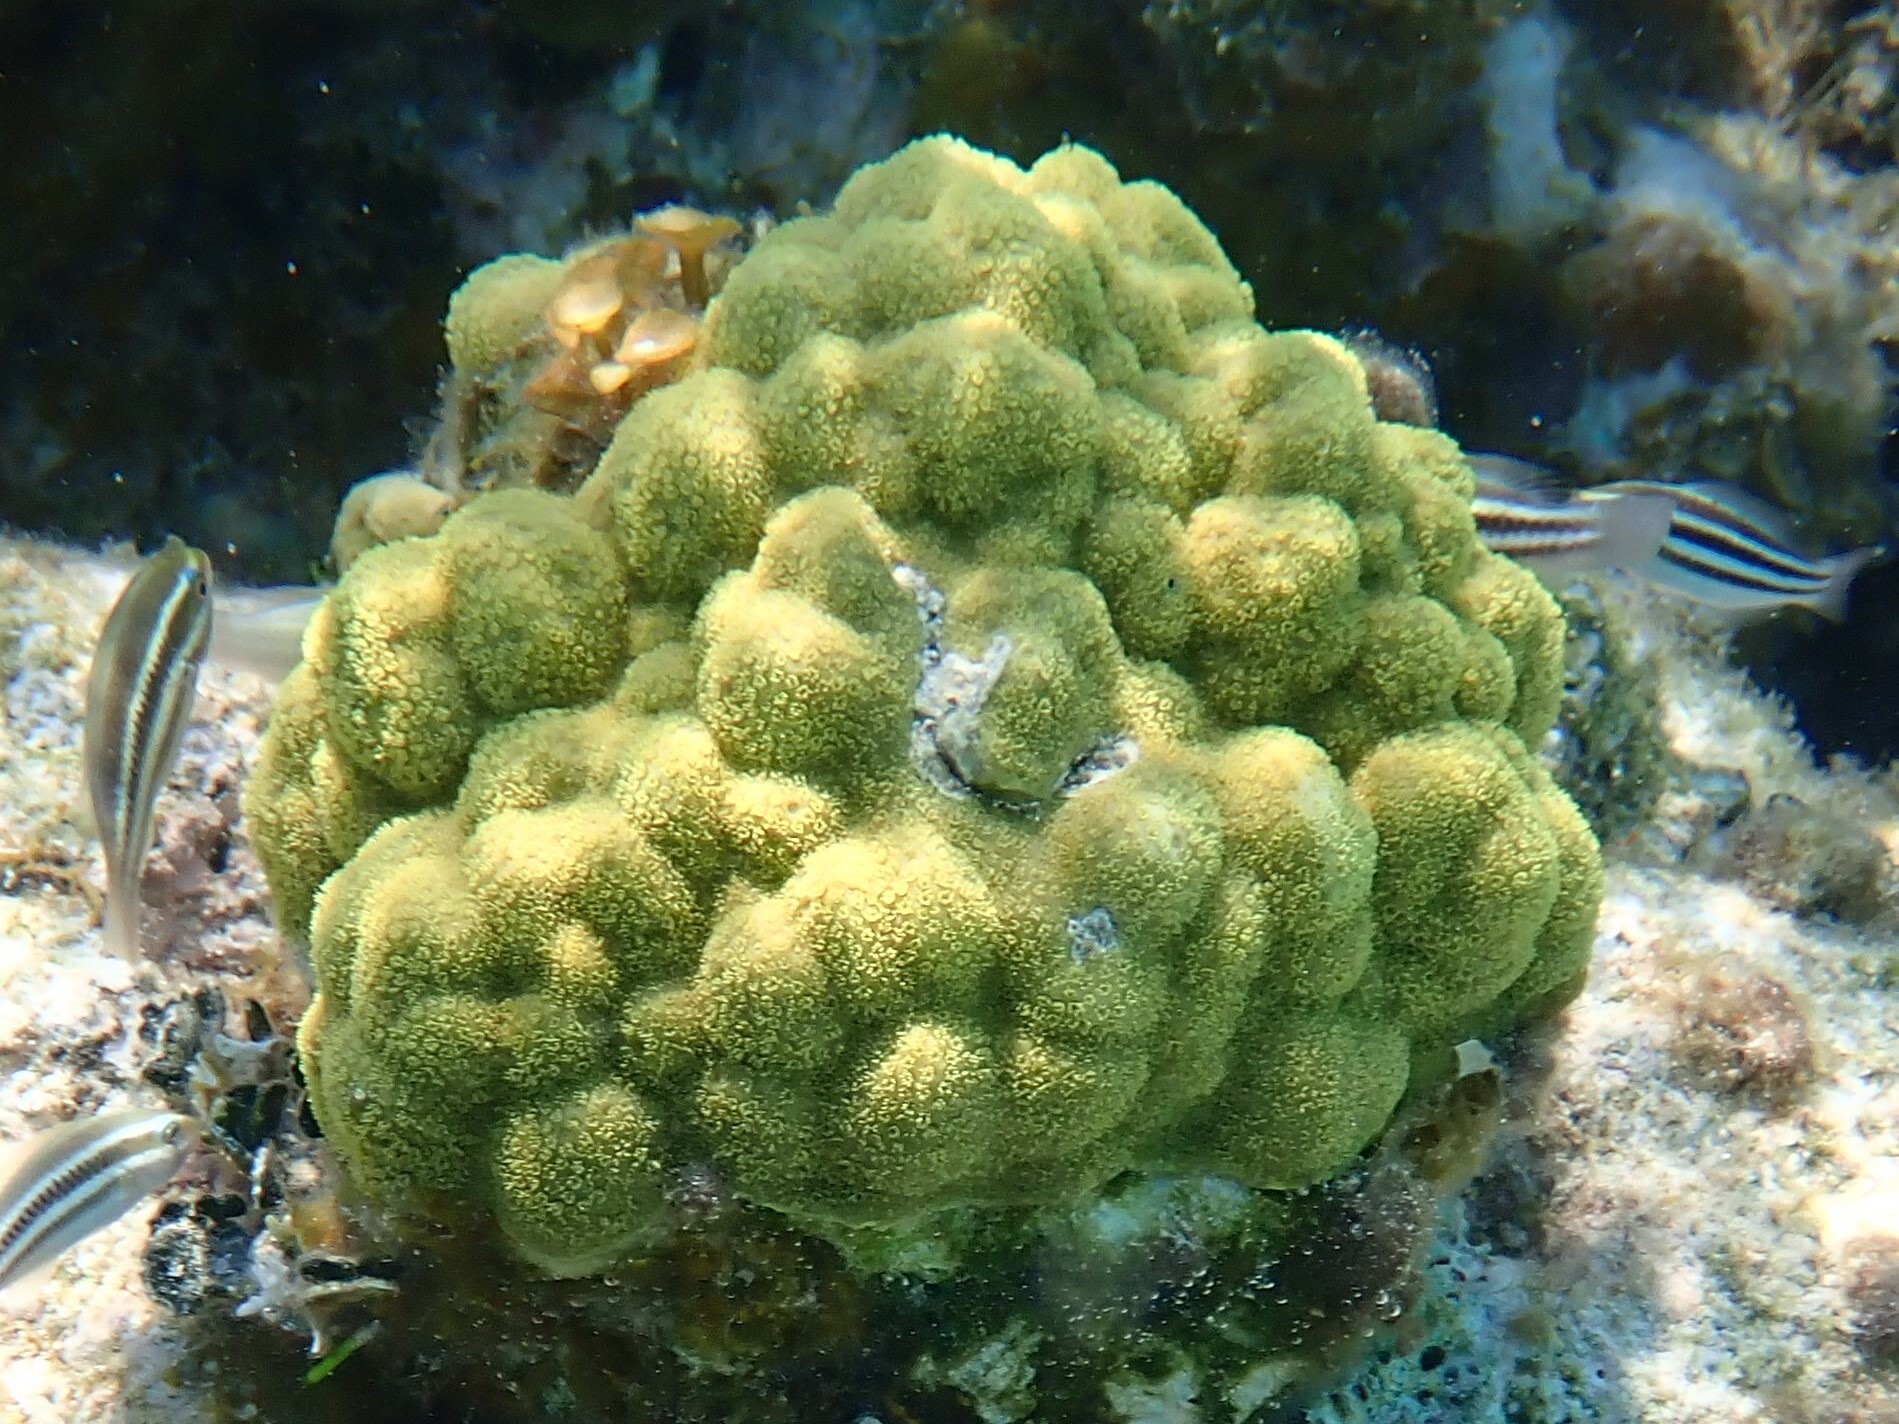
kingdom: Animalia
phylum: Cnidaria
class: Anthozoa
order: Scleractinia
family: Poritidae
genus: Porites
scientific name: Porites astreoides
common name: Mustard hill coral
